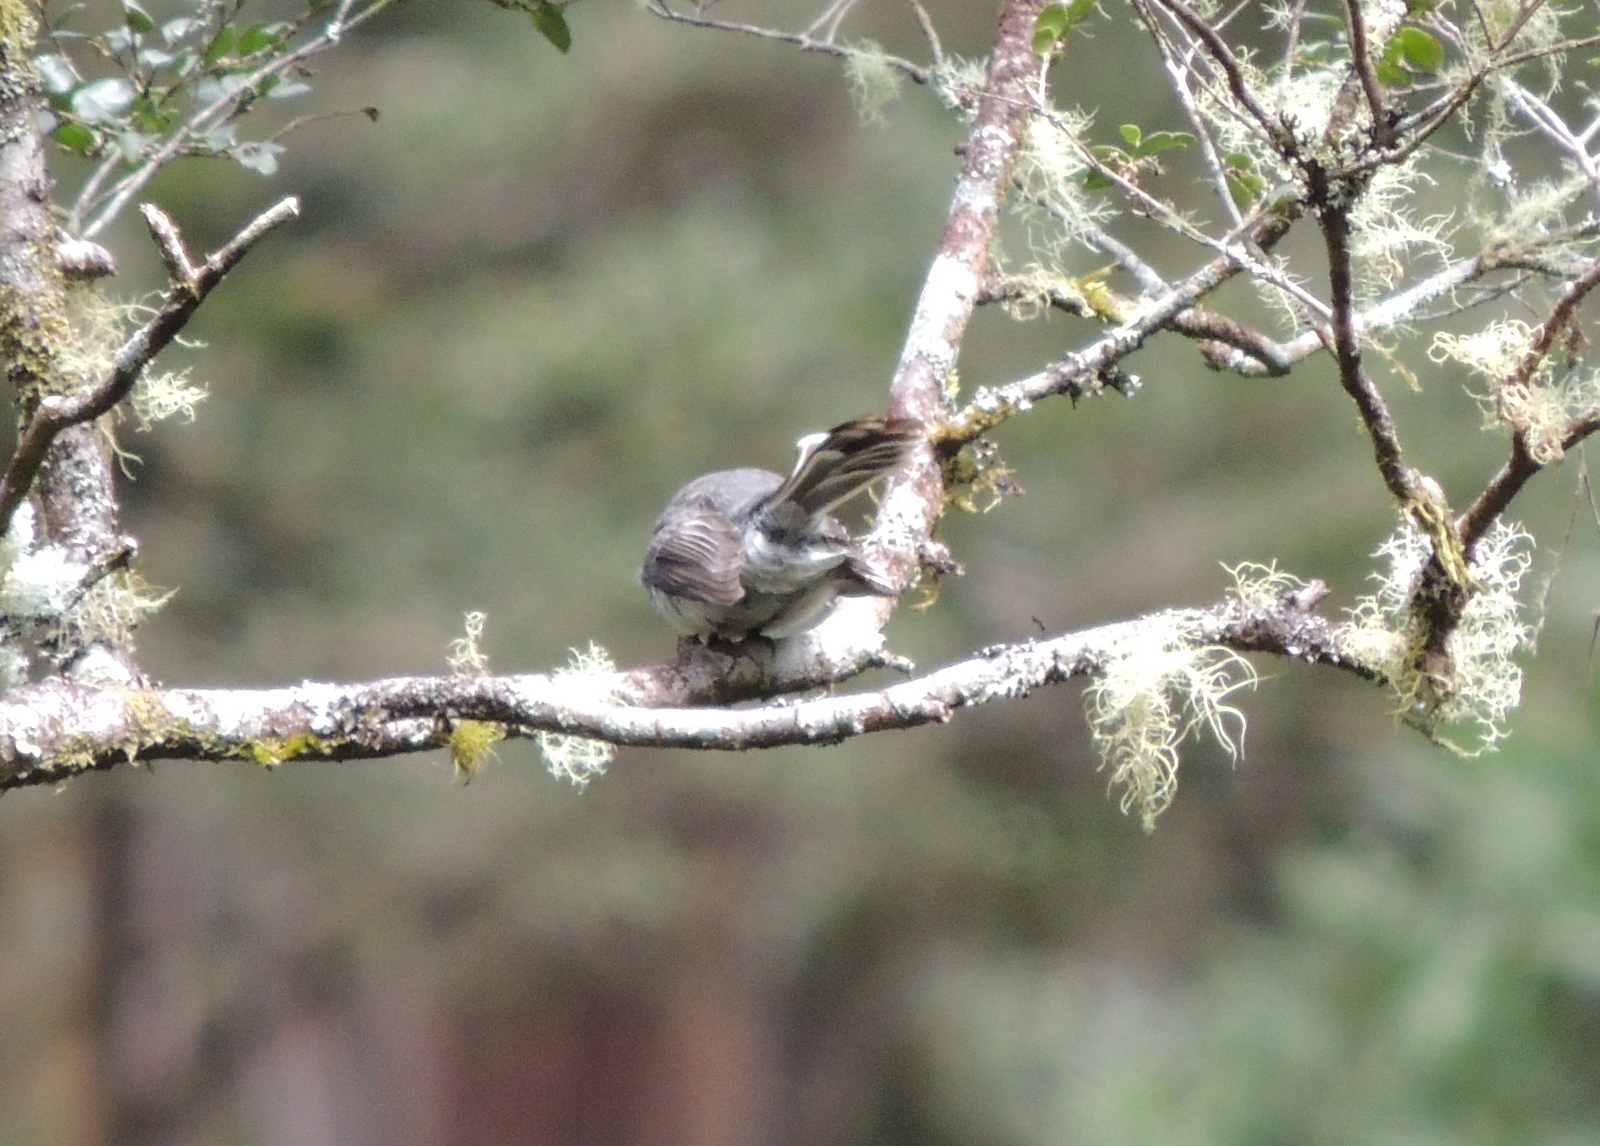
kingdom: Animalia
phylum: Chordata
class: Aves
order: Passeriformes
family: Rhipiduridae
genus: Rhipidura
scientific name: Rhipidura albiscapa
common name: Grey fantail
